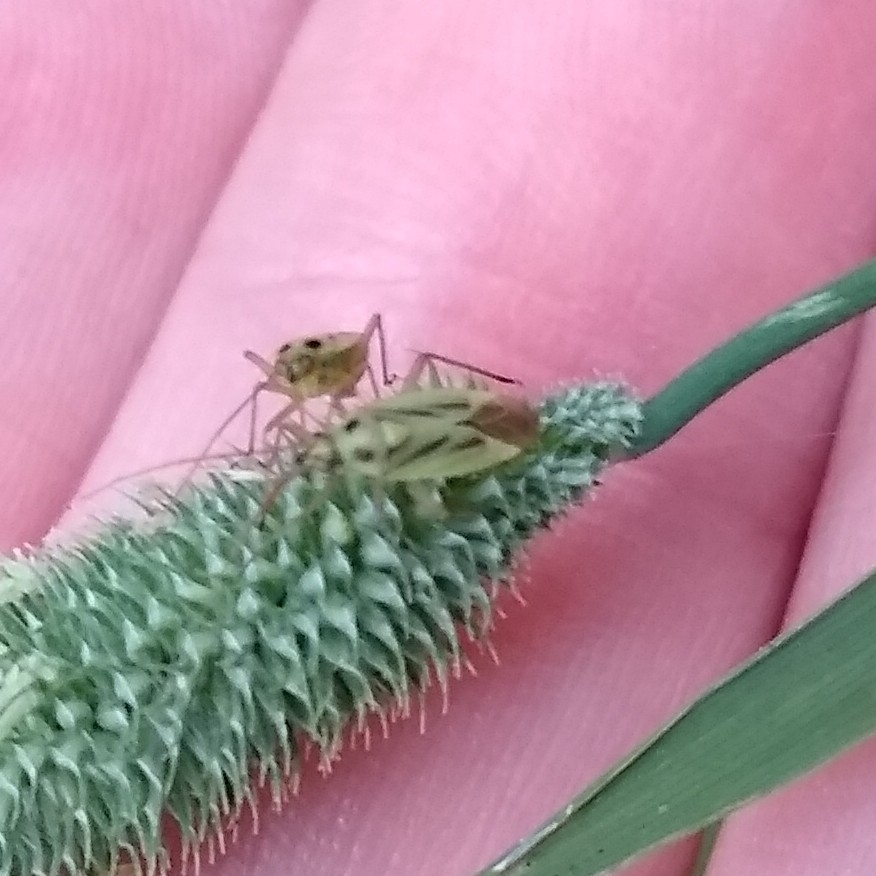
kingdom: Animalia
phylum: Arthropoda
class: Insecta
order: Hemiptera
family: Miridae
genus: Stenotus
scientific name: Stenotus binotatus
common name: Plant bug
